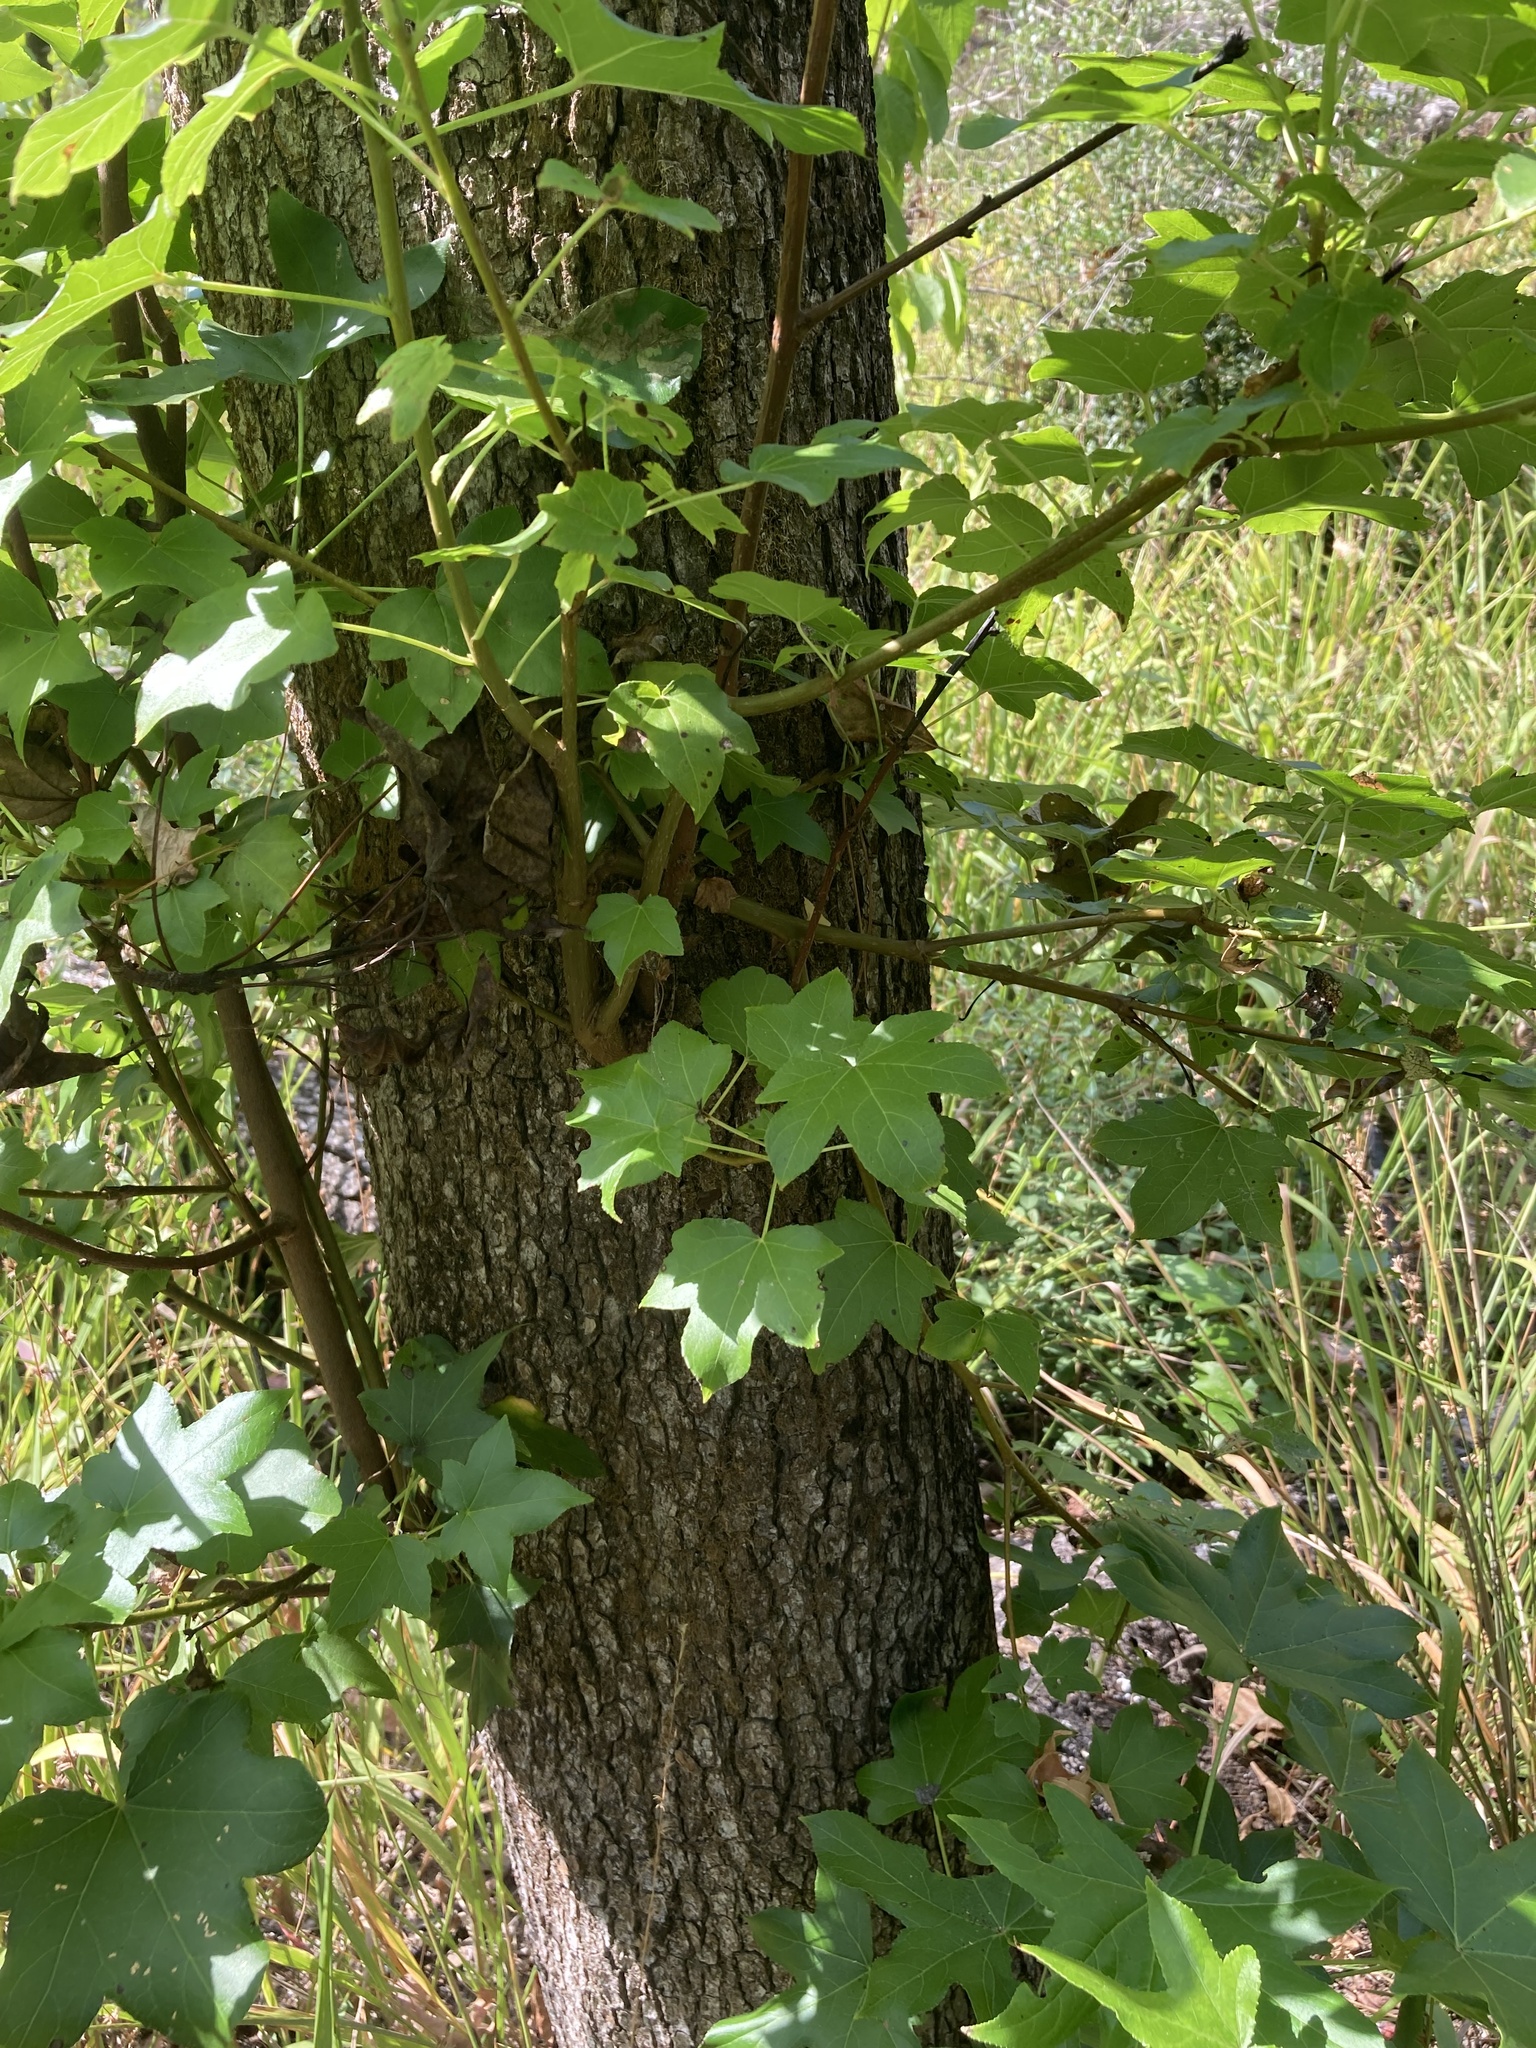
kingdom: Plantae
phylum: Tracheophyta
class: Magnoliopsida
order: Saxifragales
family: Altingiaceae
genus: Liquidambar
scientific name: Liquidambar styraciflua
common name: Sweet gum
